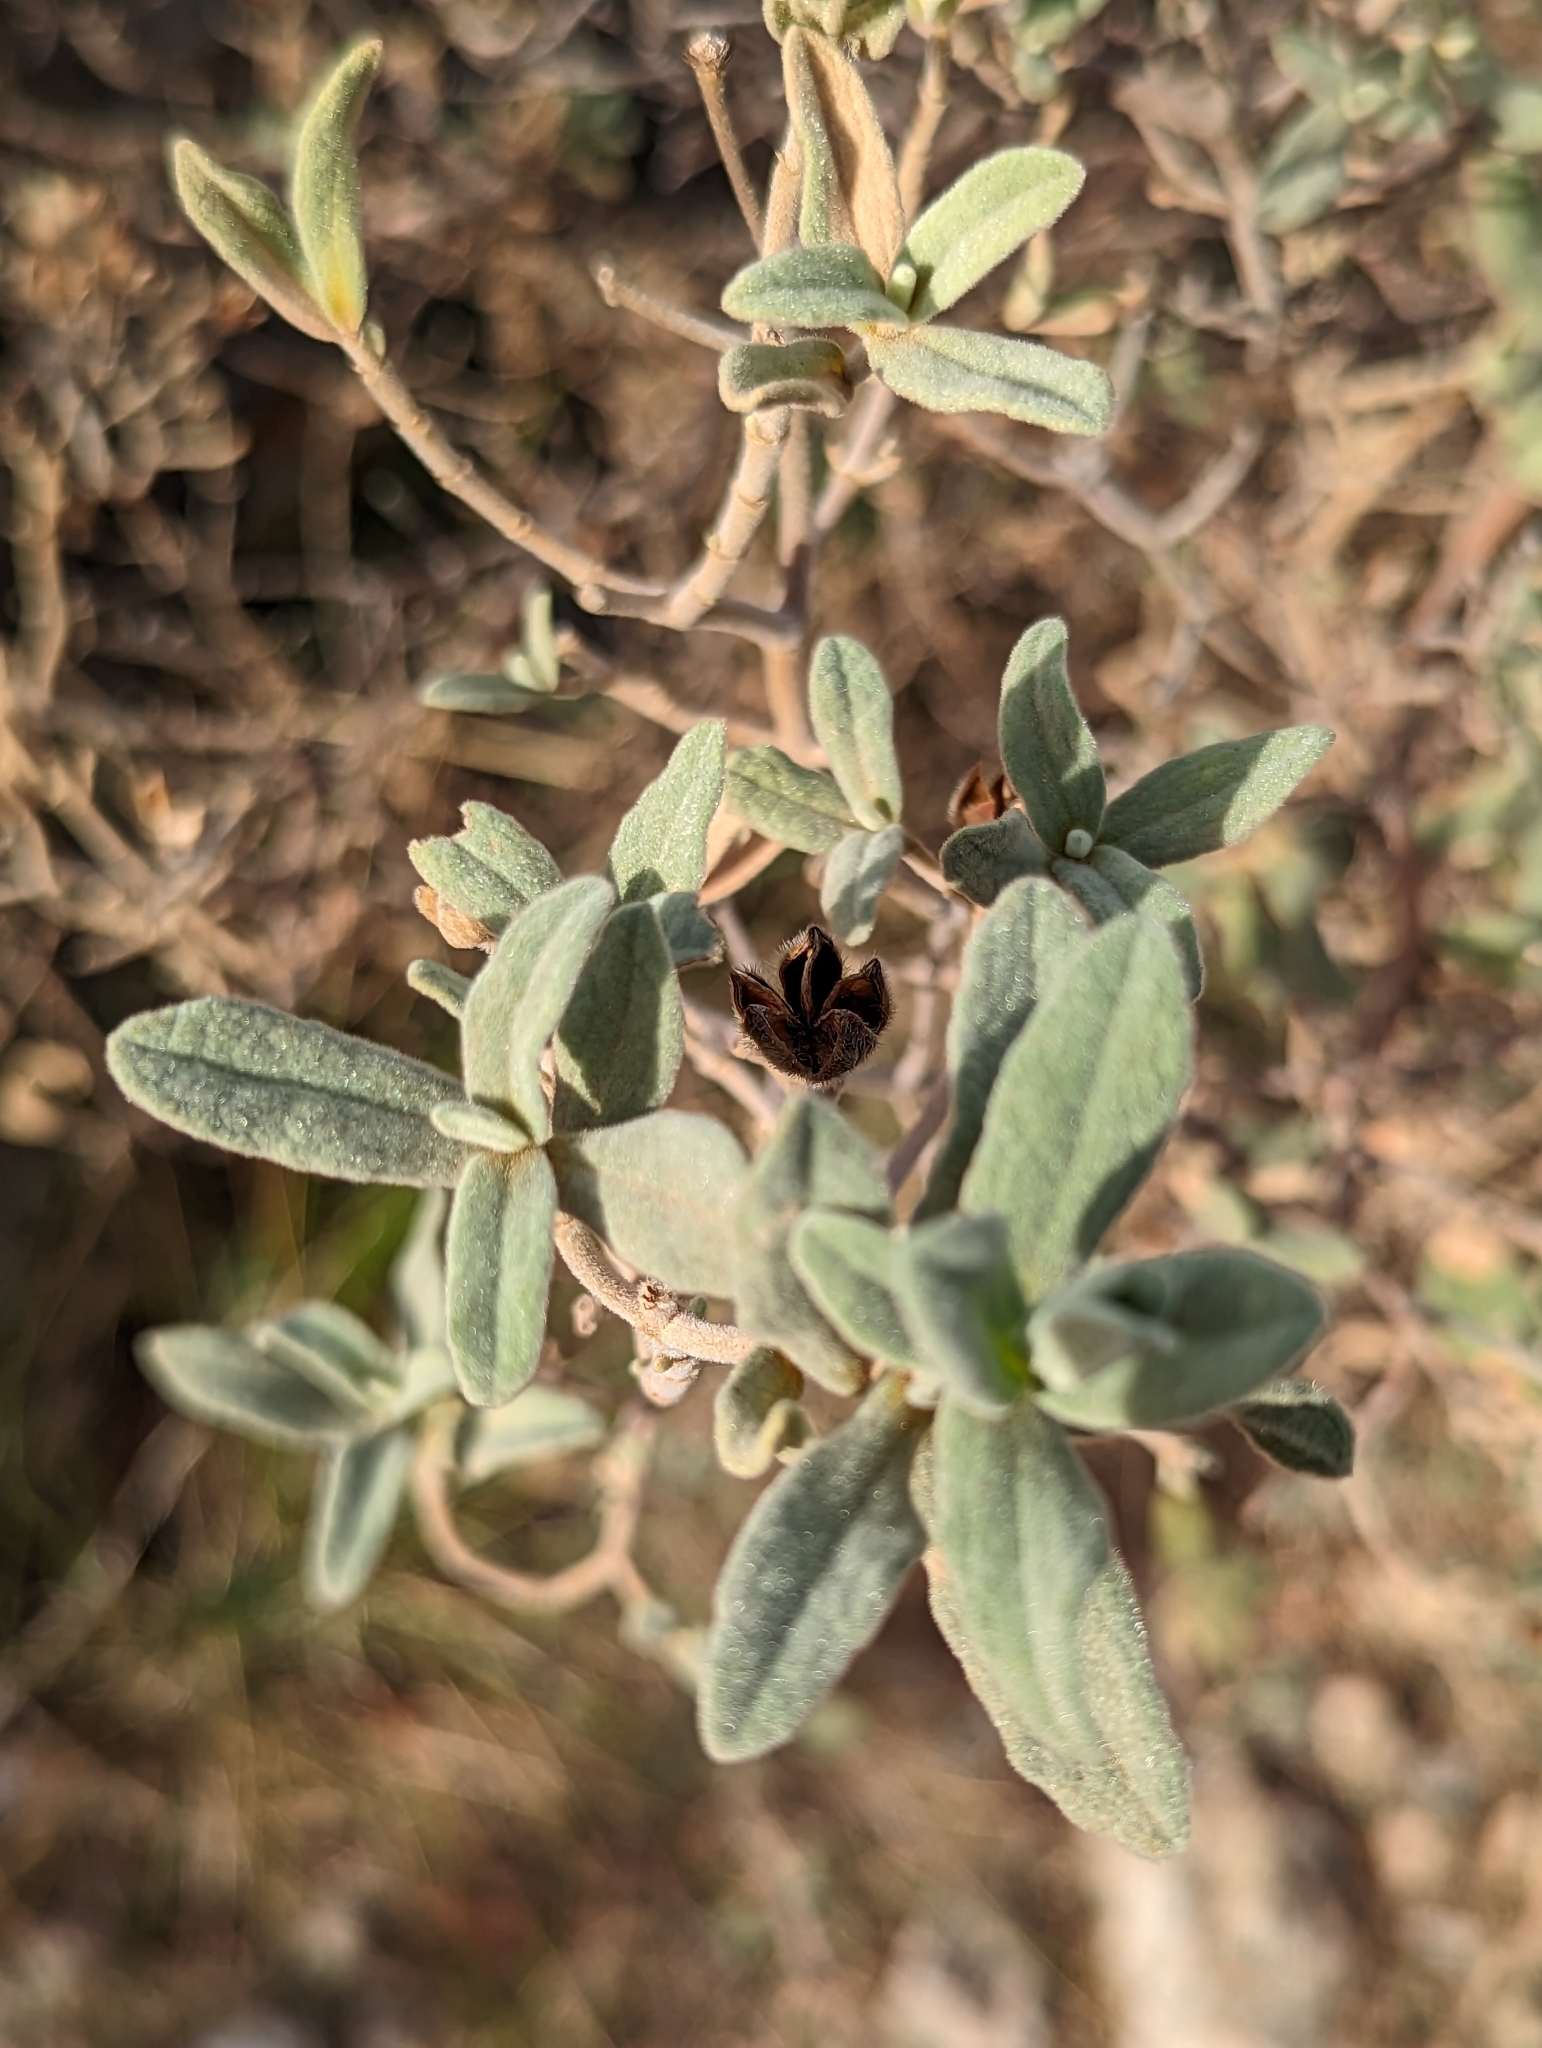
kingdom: Plantae
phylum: Tracheophyta
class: Magnoliopsida
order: Malvales
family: Cistaceae
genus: Cistus
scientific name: Cistus albidus
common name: White-leaf rock-rose
